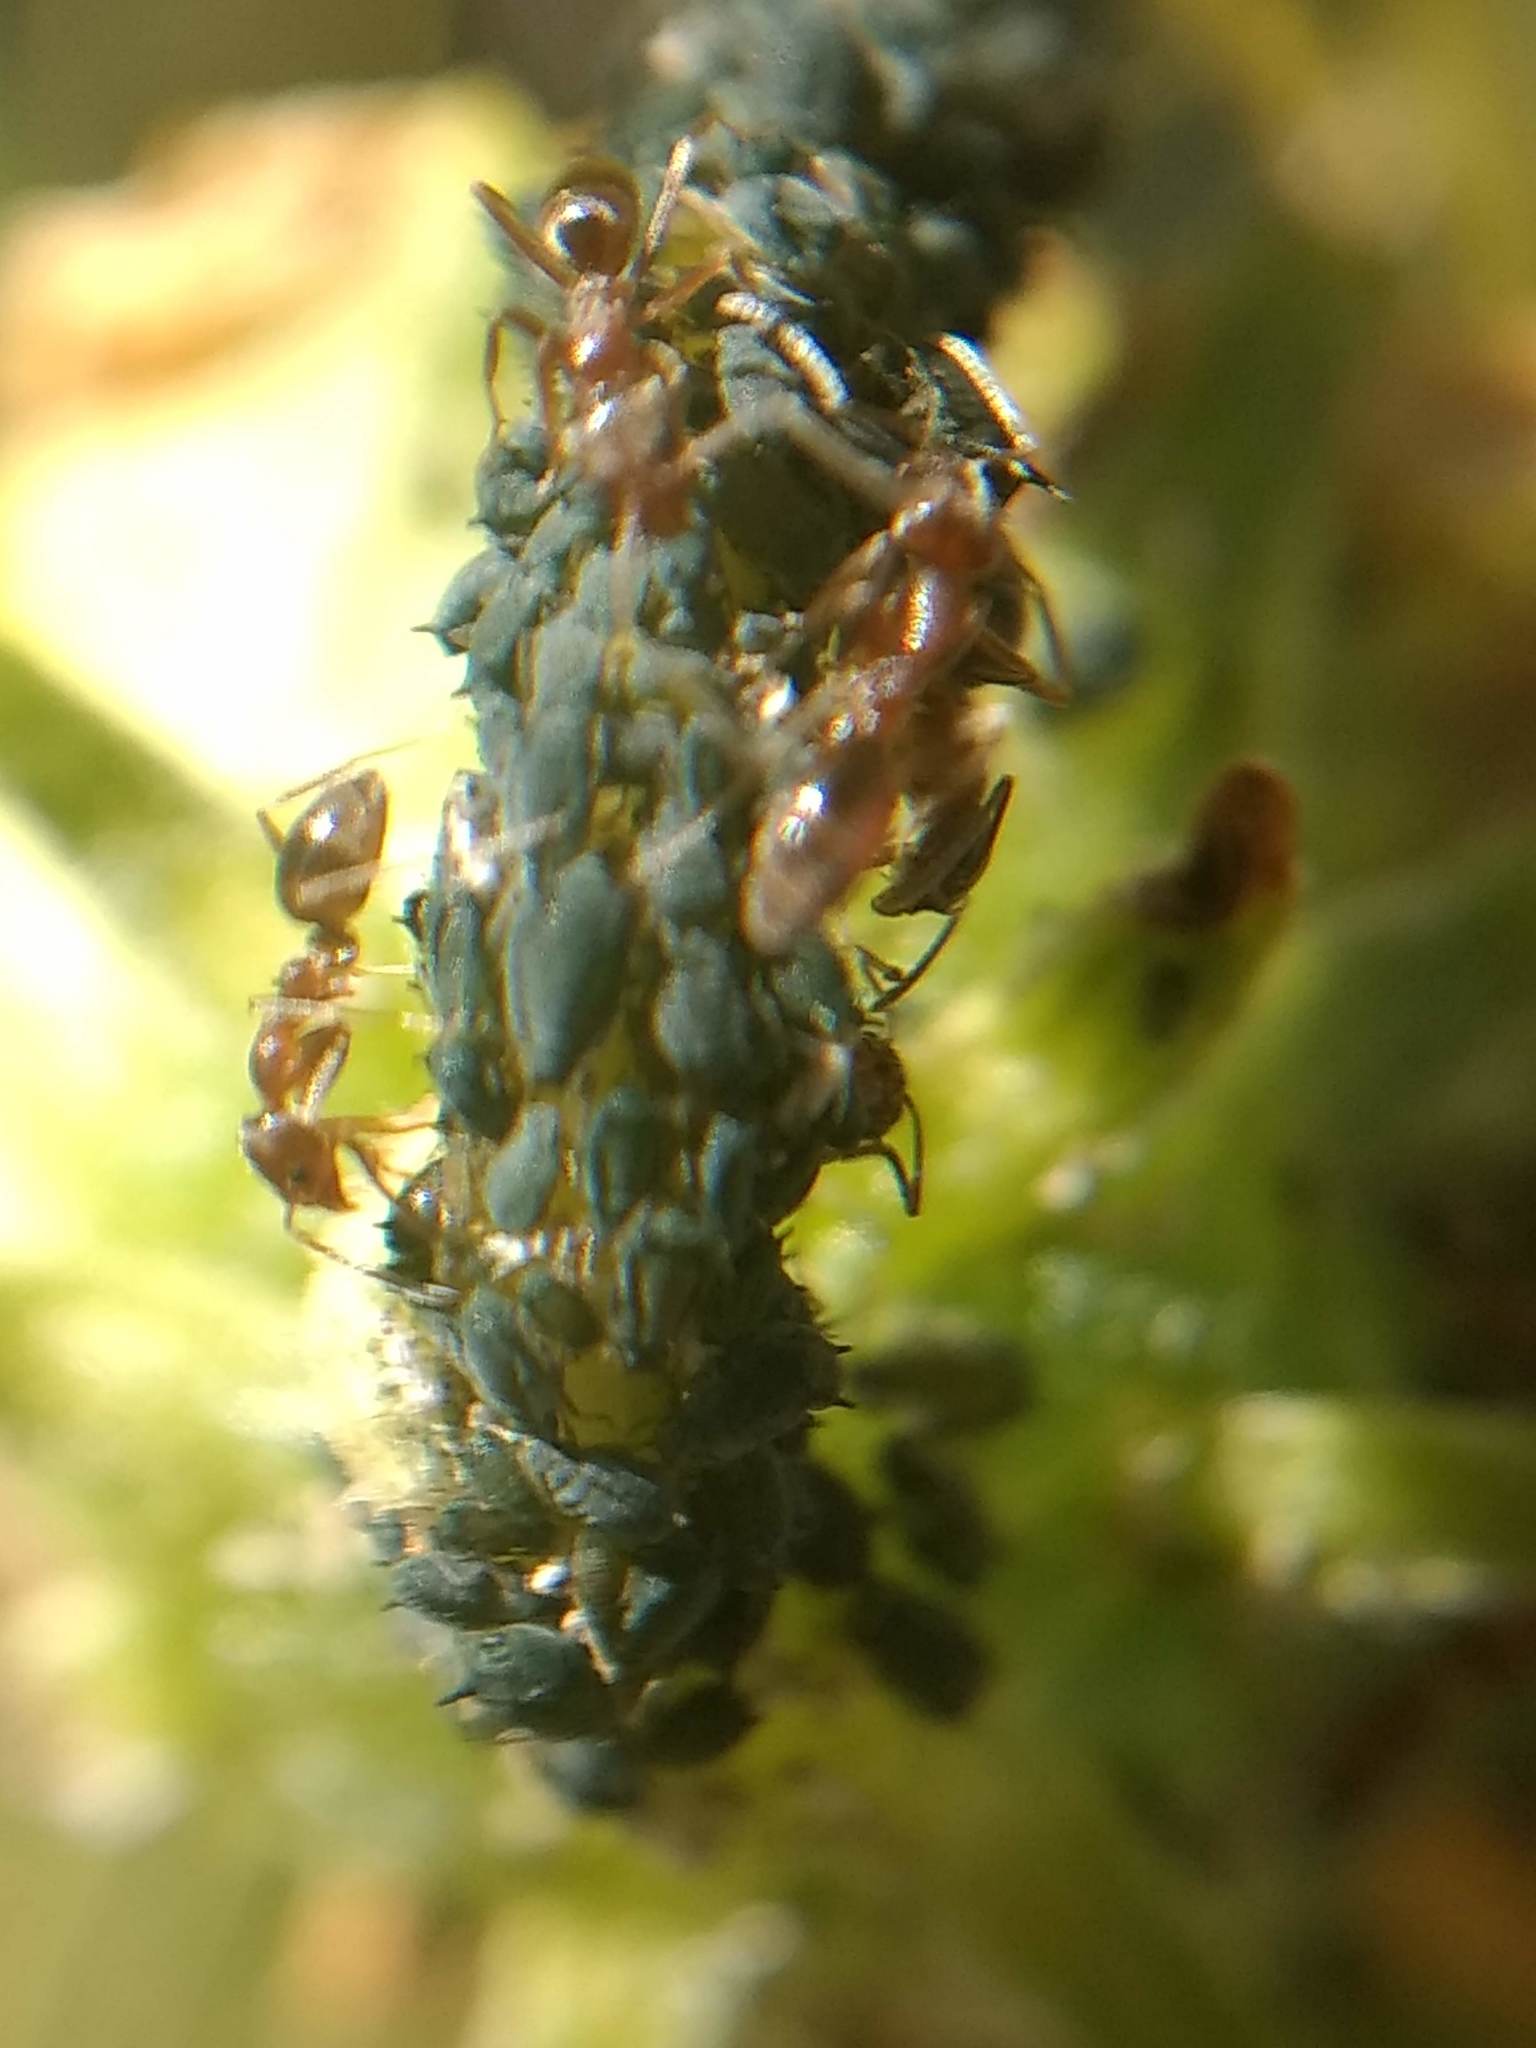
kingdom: Animalia
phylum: Arthropoda
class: Insecta
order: Hymenoptera
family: Formicidae
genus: Linepithema
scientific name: Linepithema humile
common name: Argentine ant
